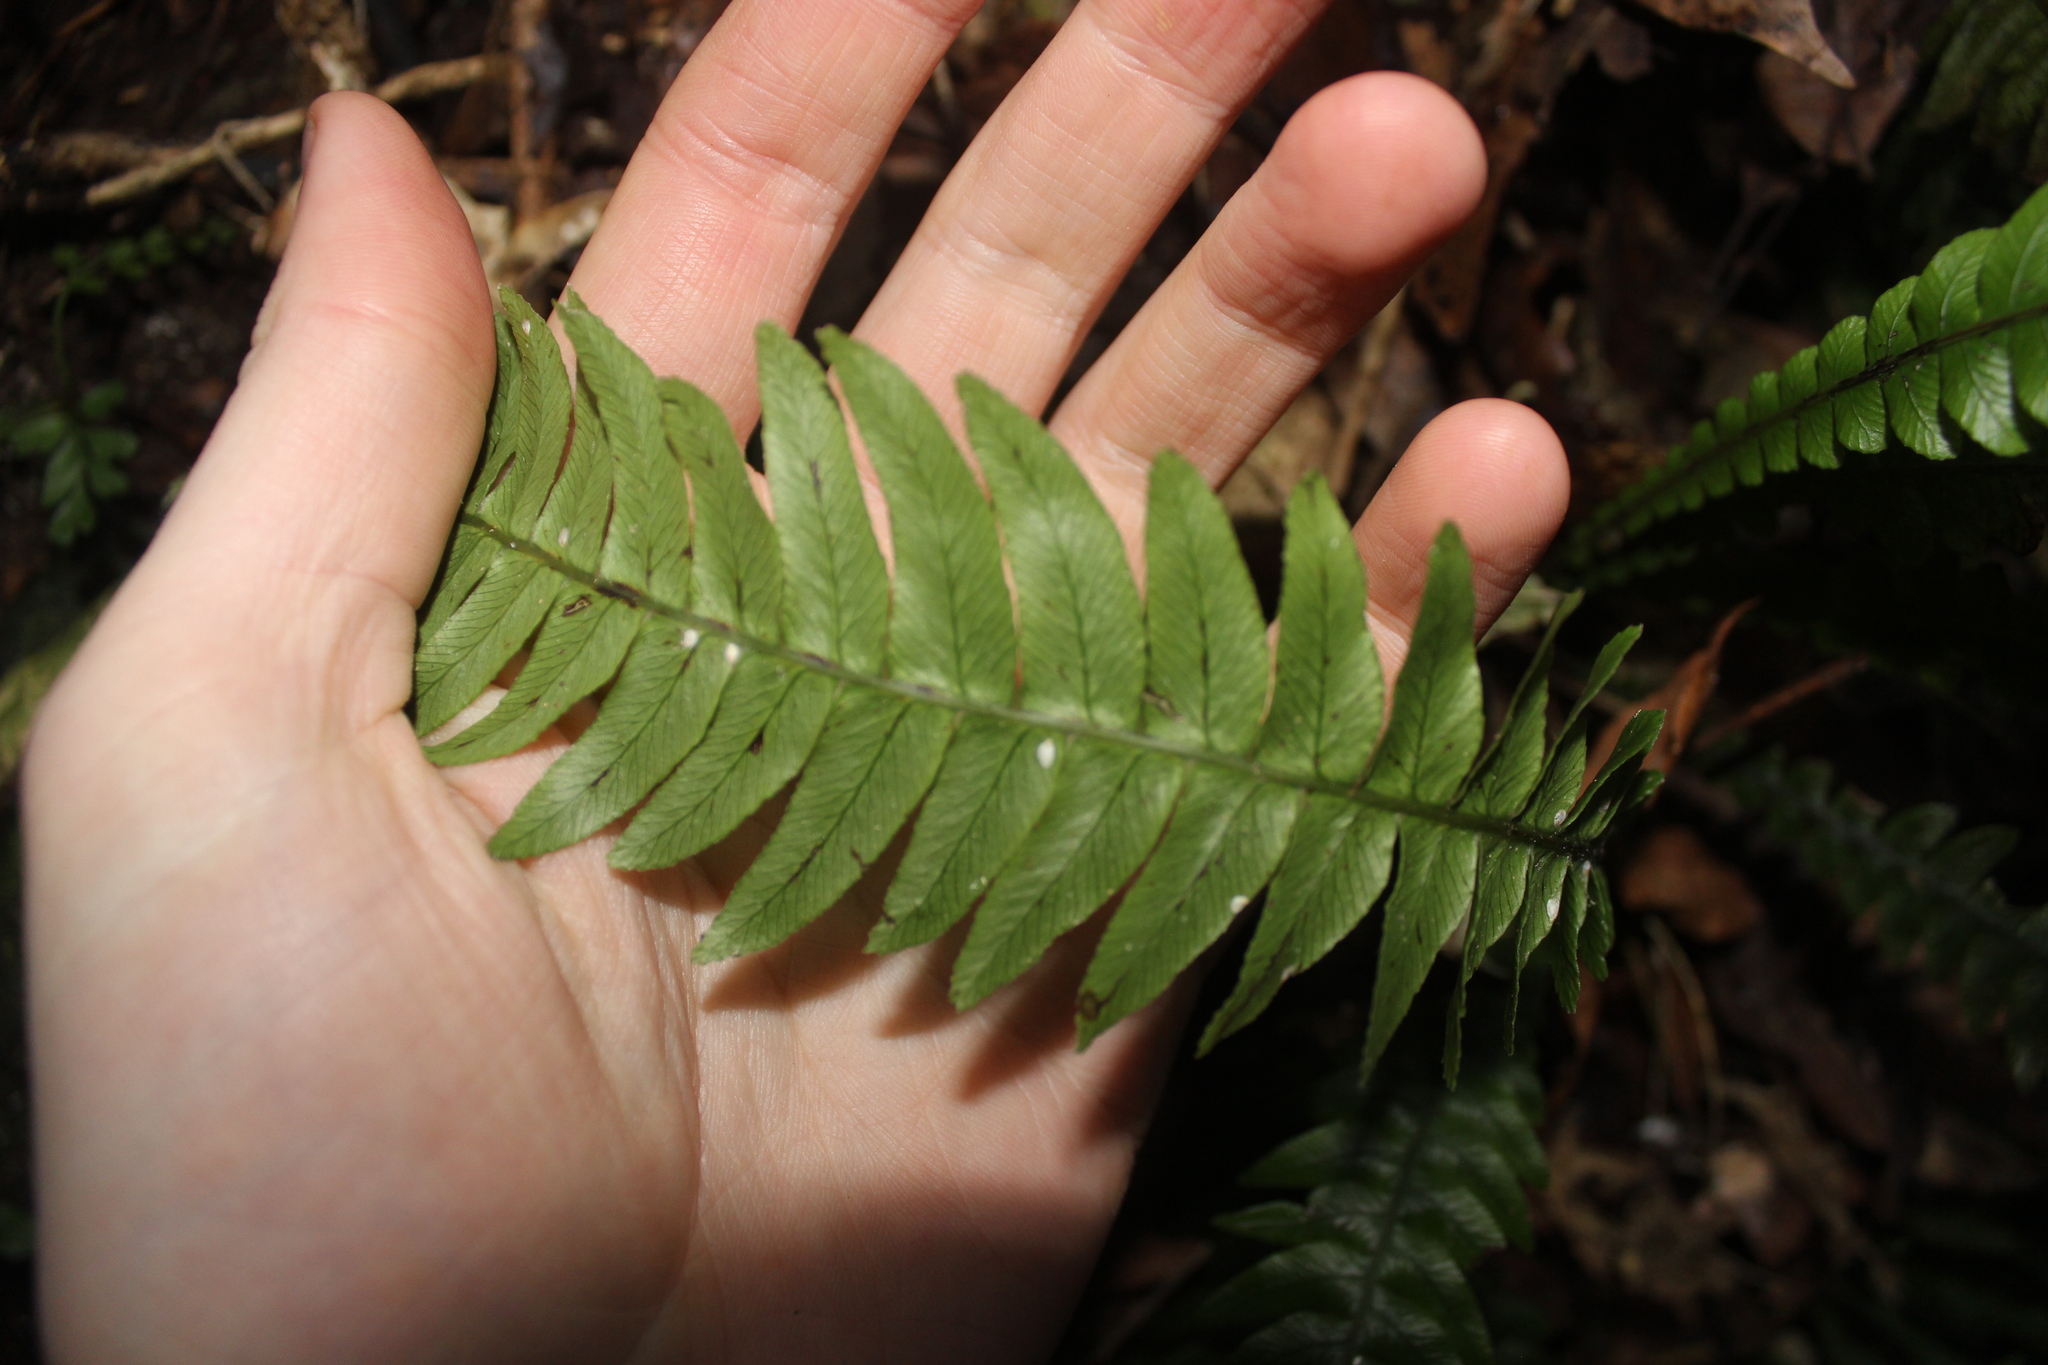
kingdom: Plantae
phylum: Tracheophyta
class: Polypodiopsida
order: Polypodiales
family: Blechnaceae
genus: Austroblechnum
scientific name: Austroblechnum lanceolatum
